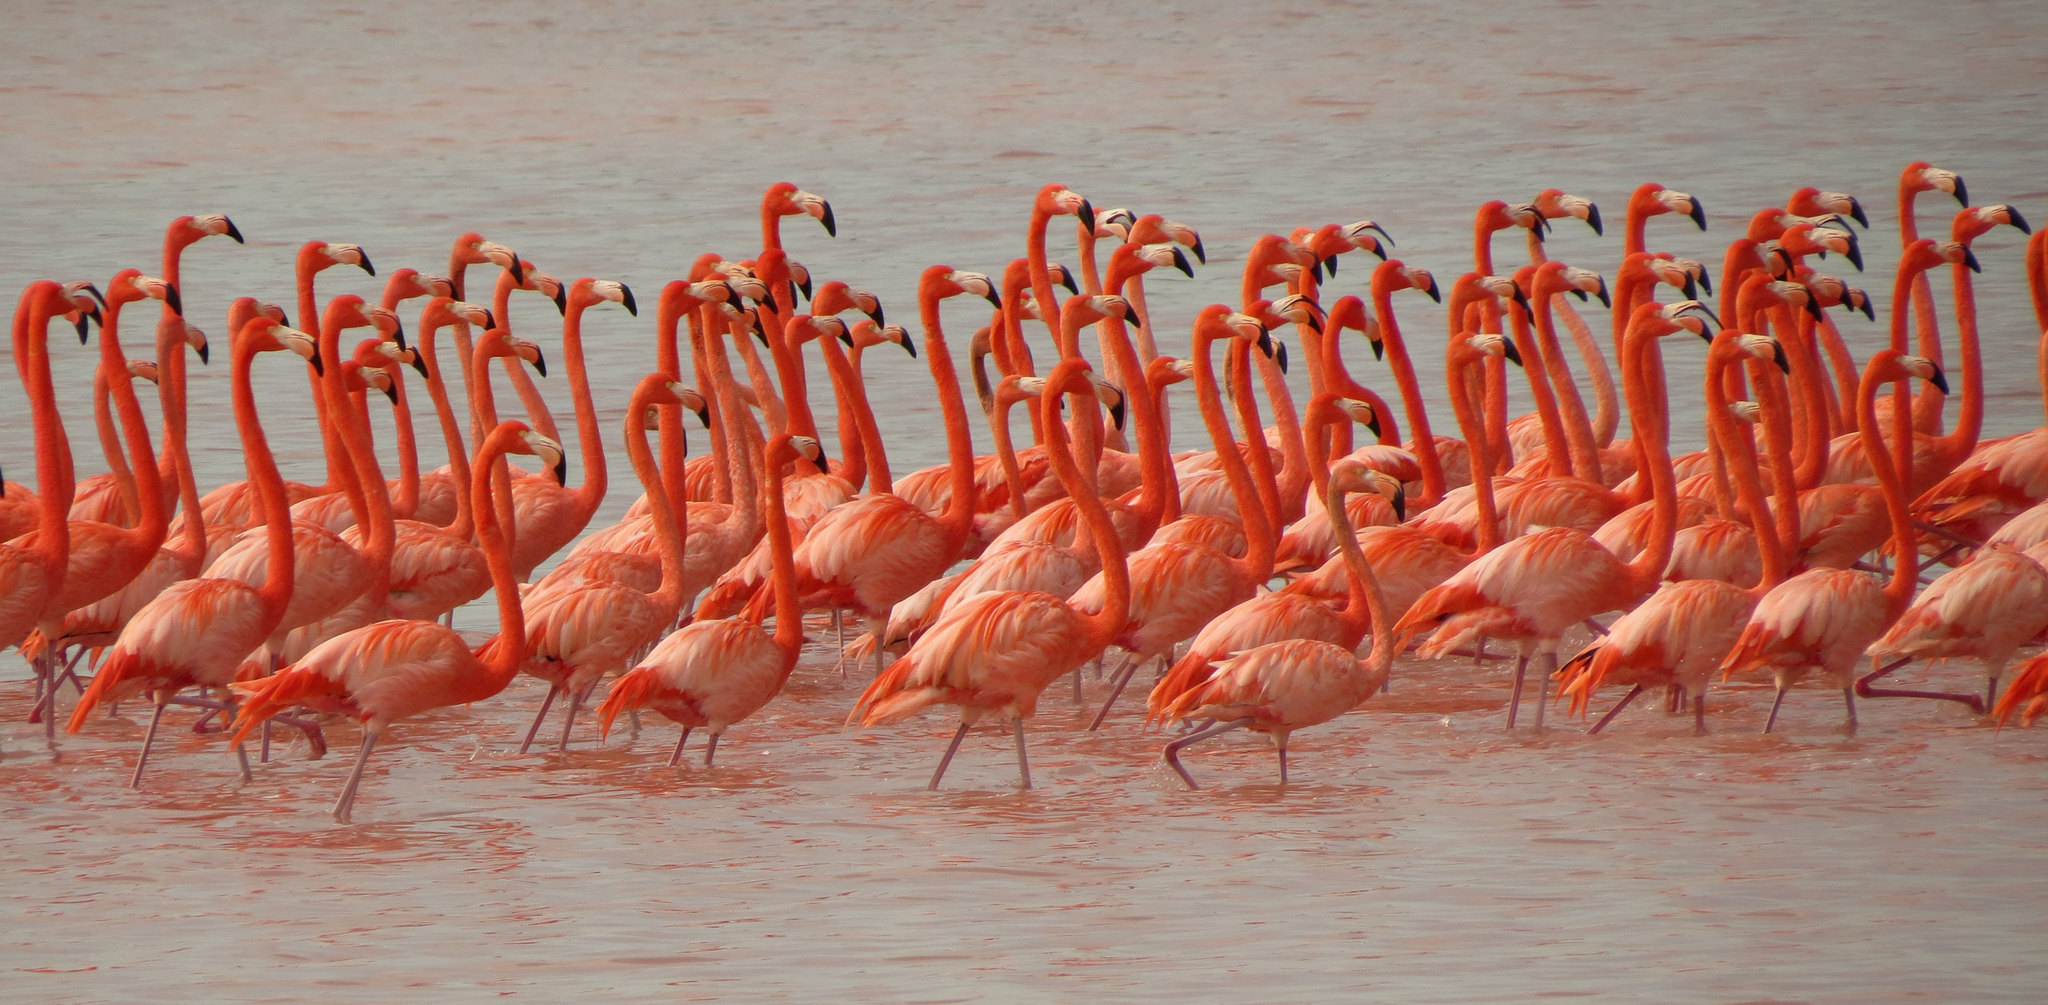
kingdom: Animalia
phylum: Chordata
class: Aves
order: Phoenicopteriformes
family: Phoenicopteridae
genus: Phoenicopterus
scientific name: Phoenicopterus ruber
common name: American flamingo
